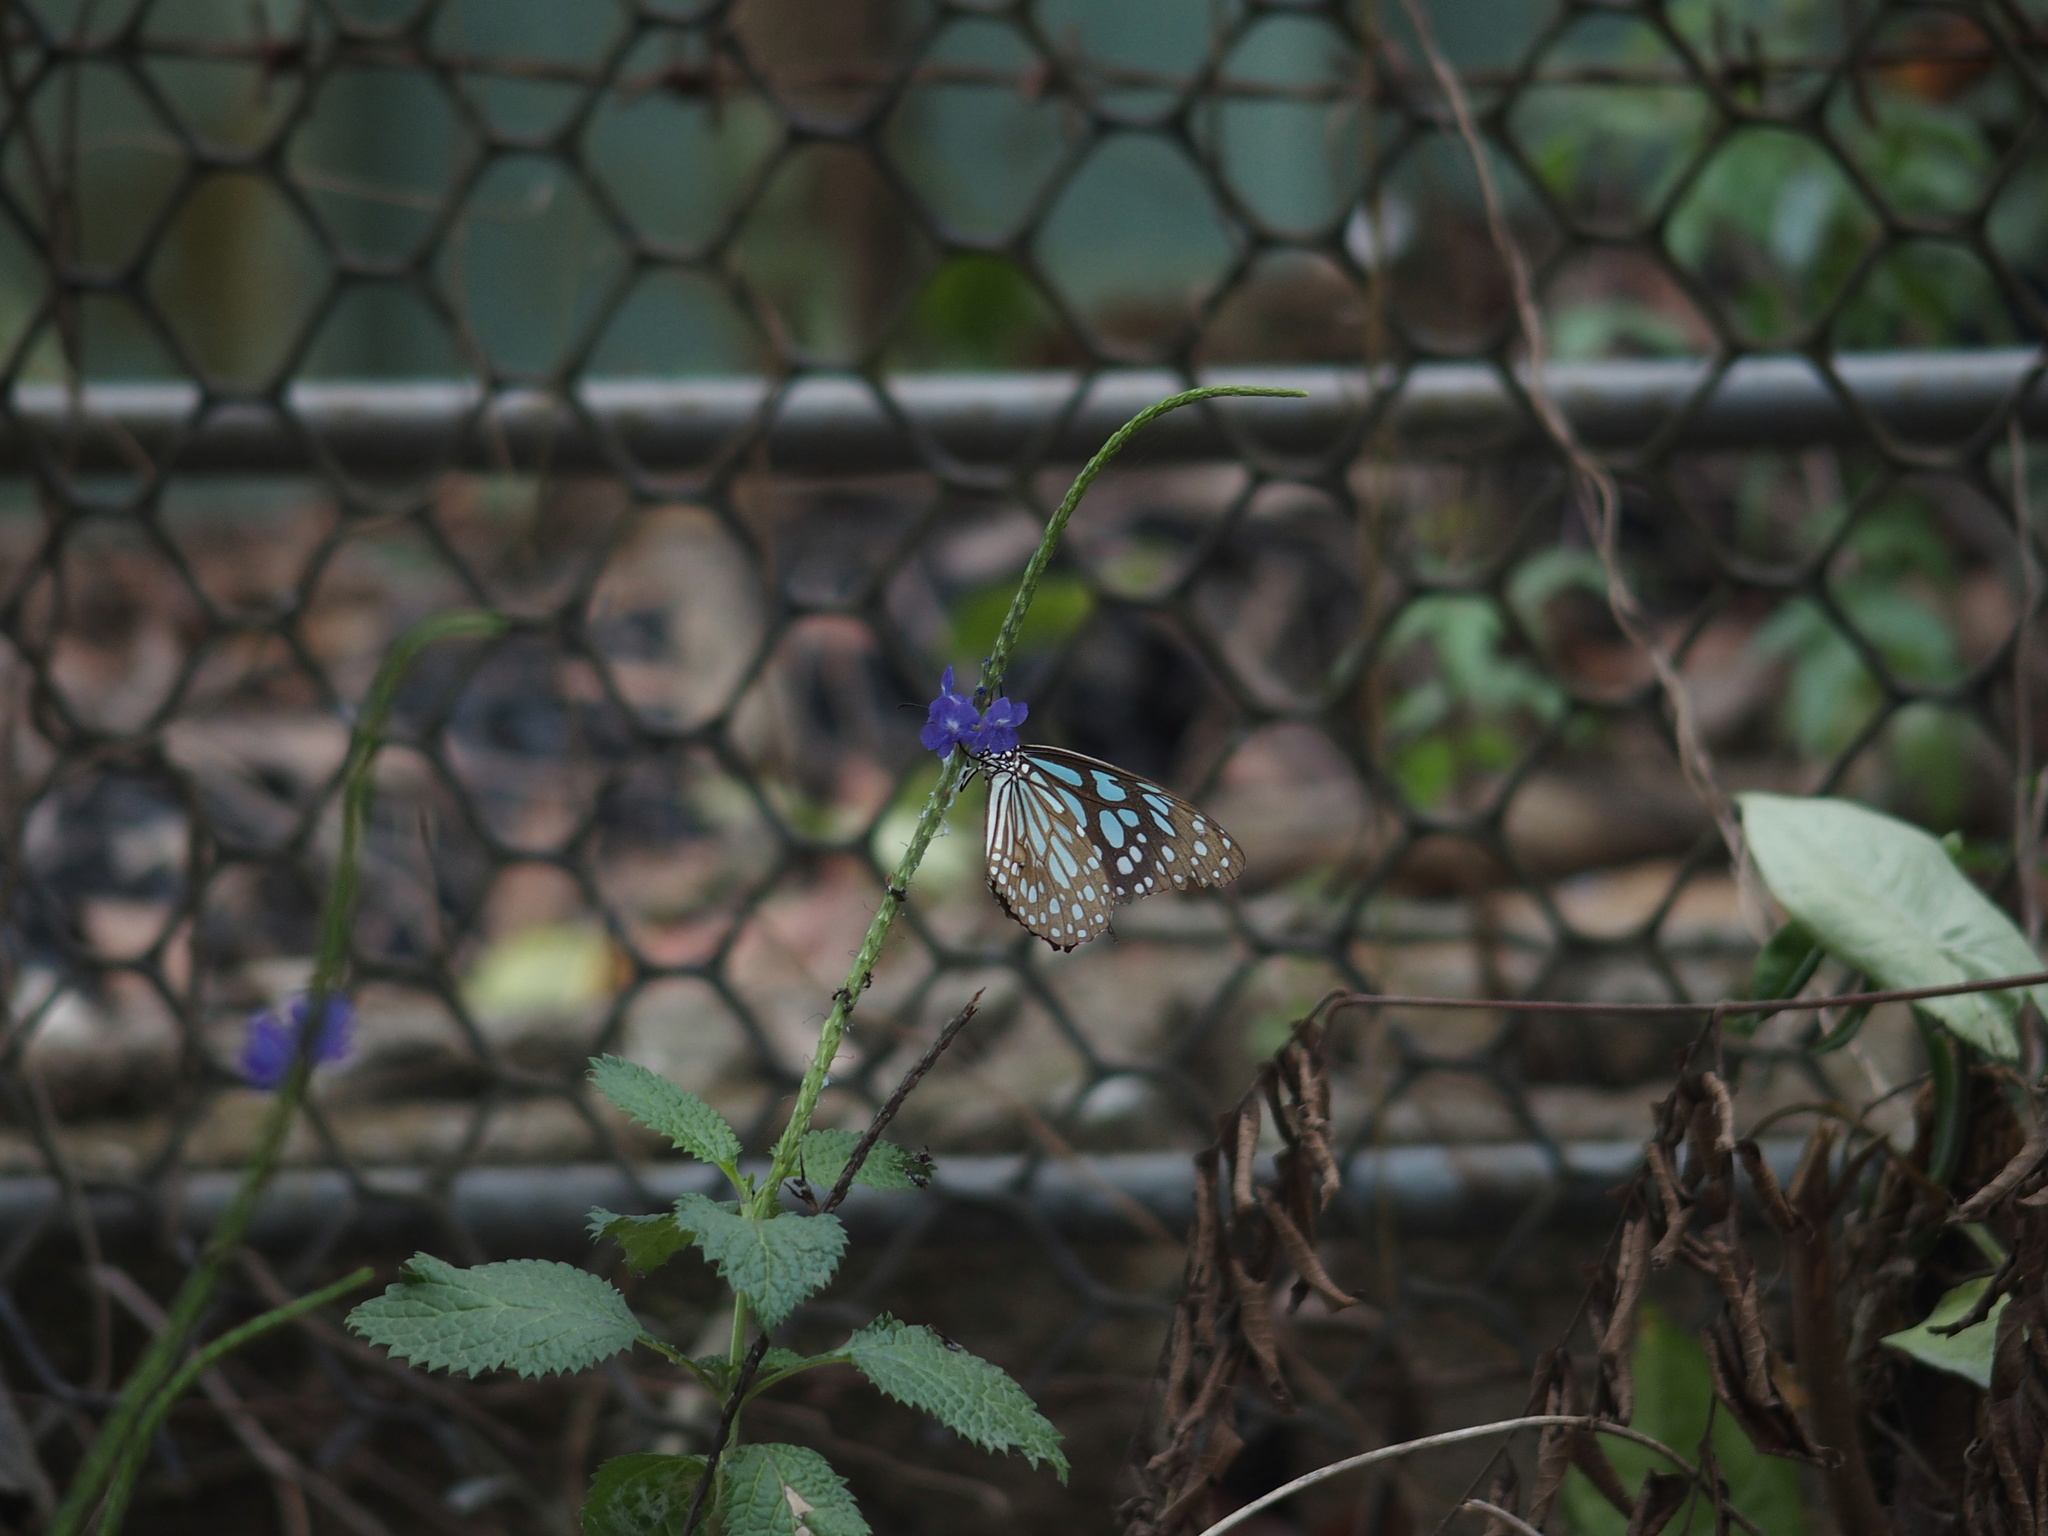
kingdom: Animalia
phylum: Arthropoda
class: Insecta
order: Lepidoptera
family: Nymphalidae
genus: Tirumala
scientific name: Tirumala limniace
